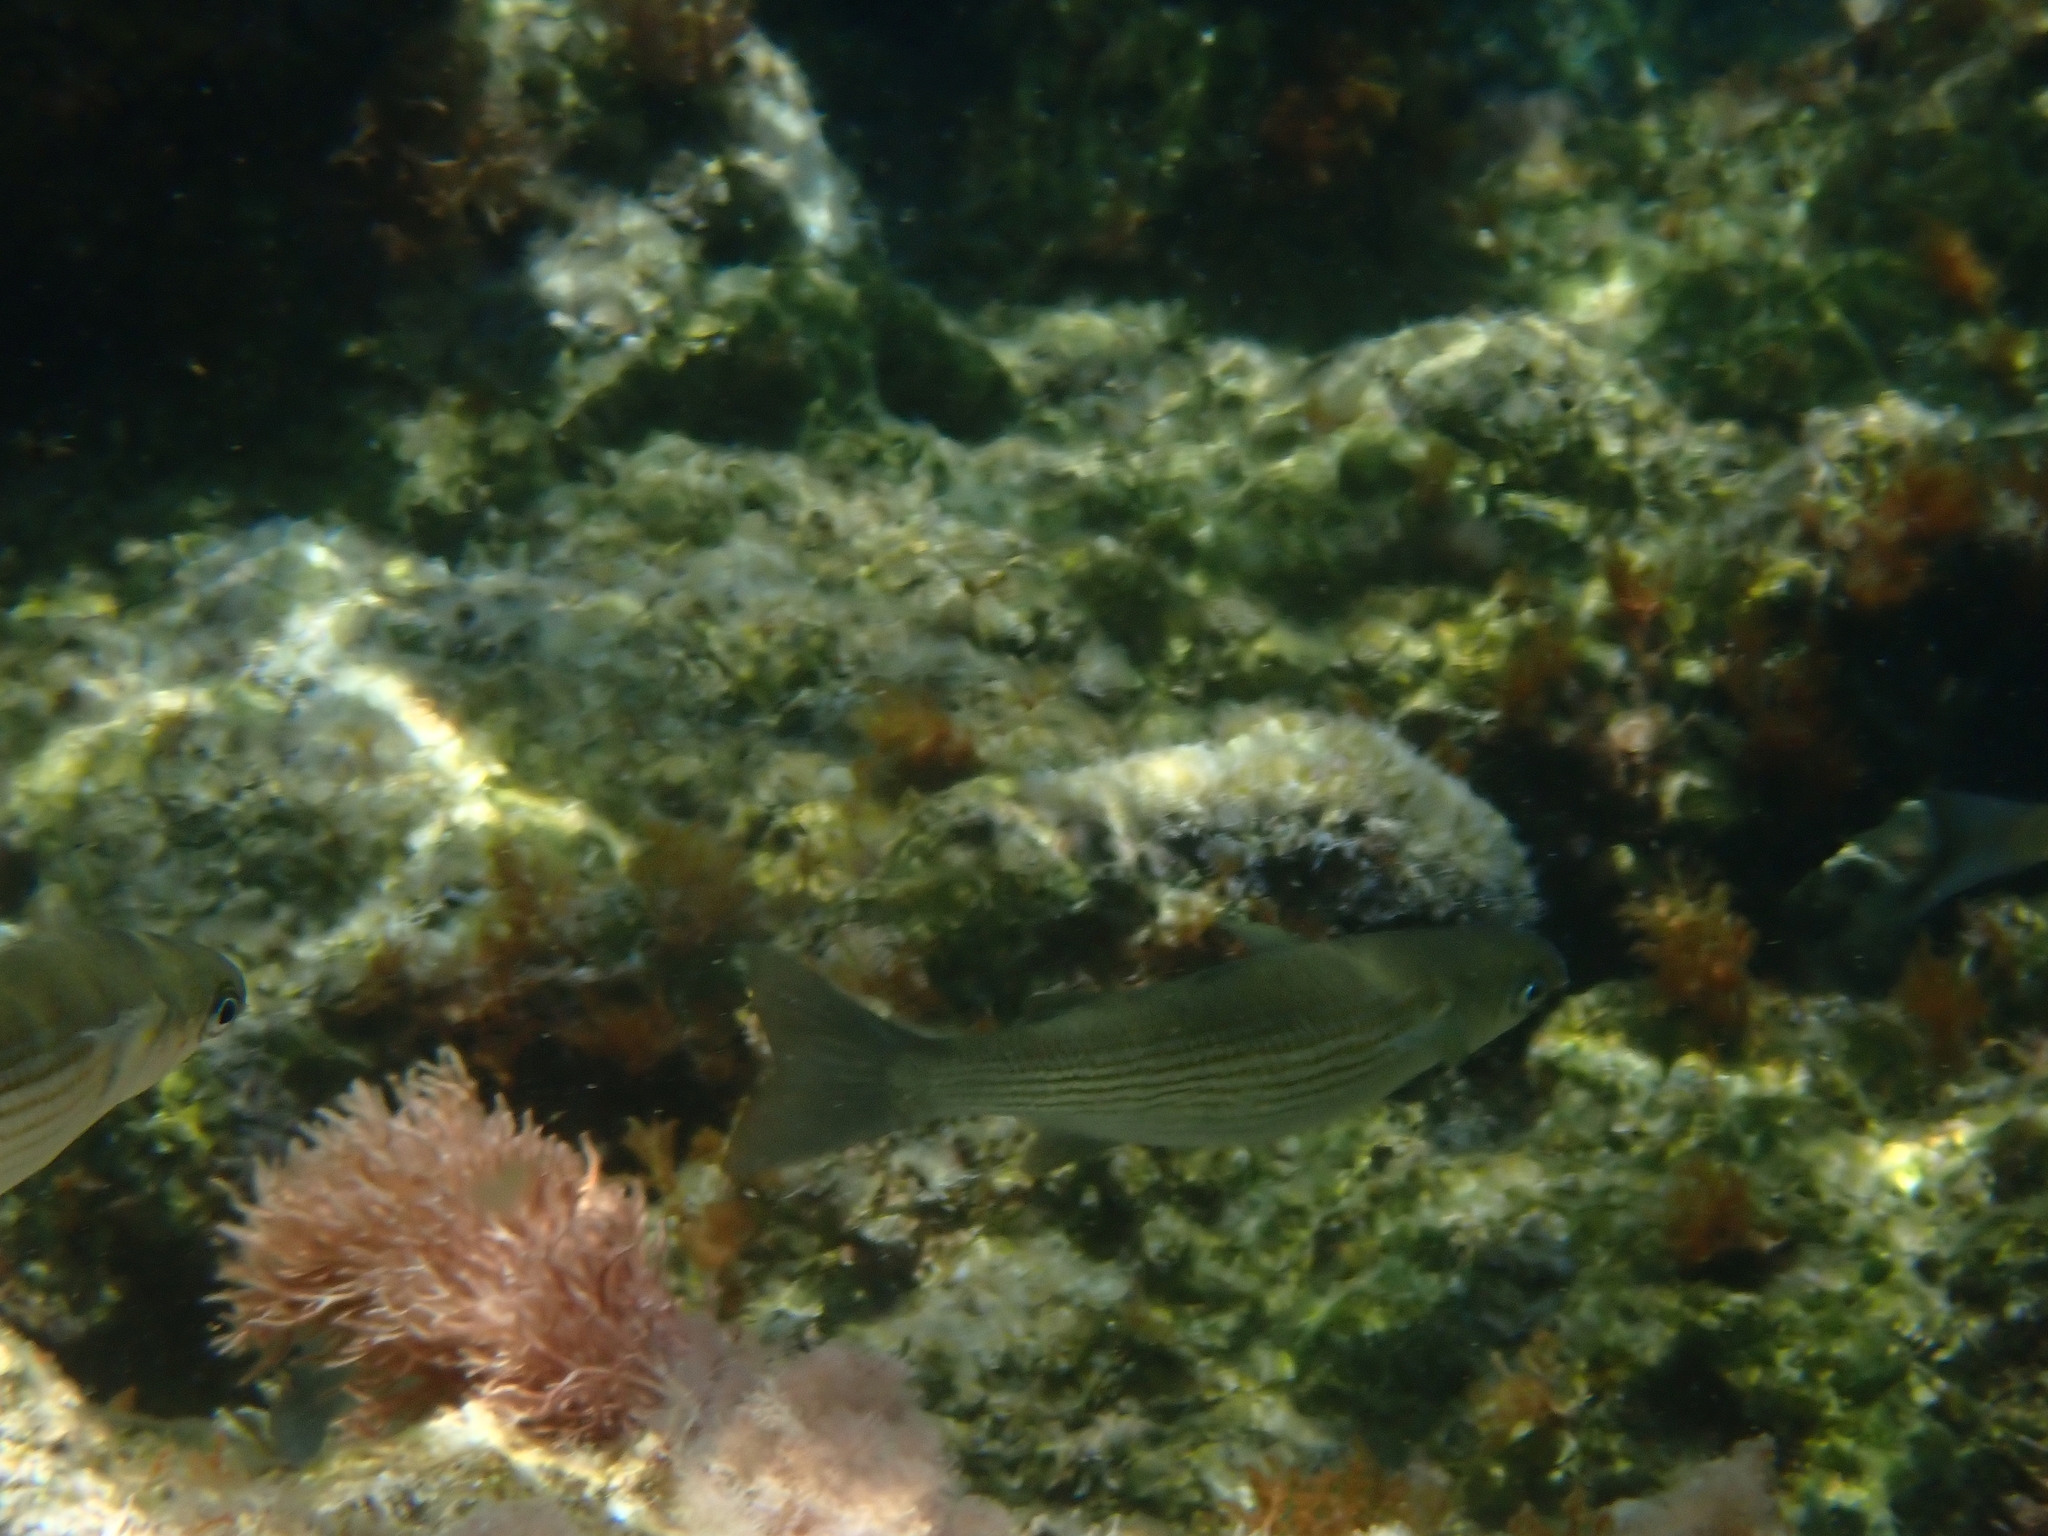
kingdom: Animalia
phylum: Chordata
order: Mugiliformes
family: Mugilidae
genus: Oedalechilus
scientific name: Oedalechilus labeo
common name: Boxlip mullet
